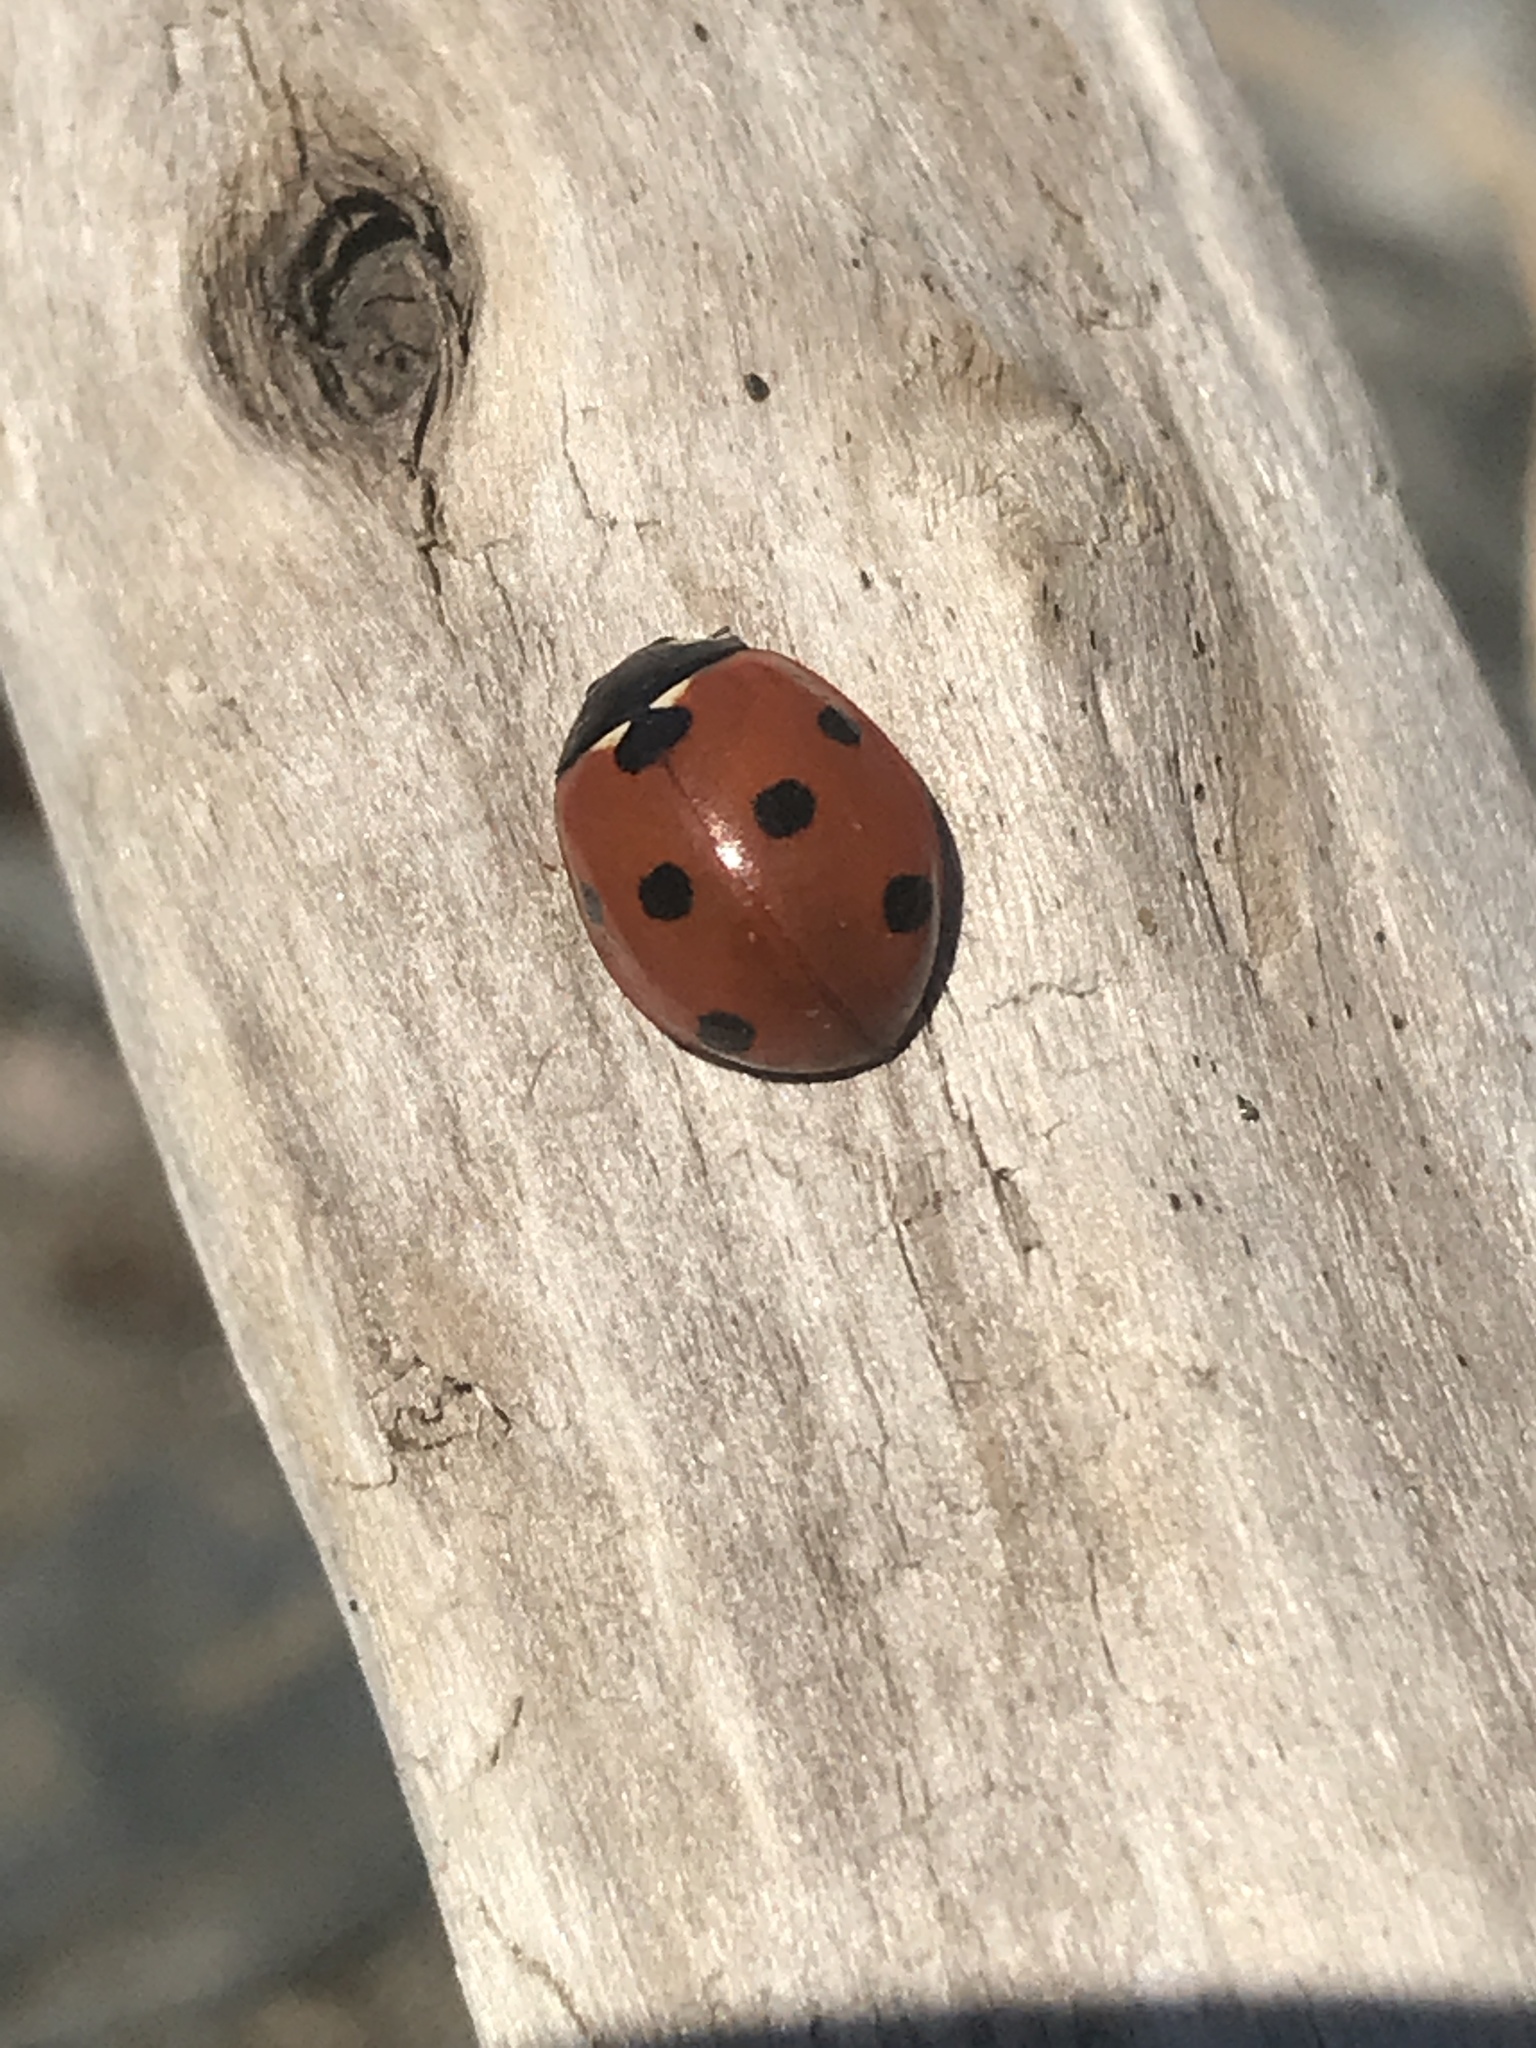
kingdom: Animalia
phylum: Arthropoda
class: Insecta
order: Coleoptera
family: Coccinellidae
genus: Coccinella
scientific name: Coccinella septempunctata
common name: Sevenspotted lady beetle
